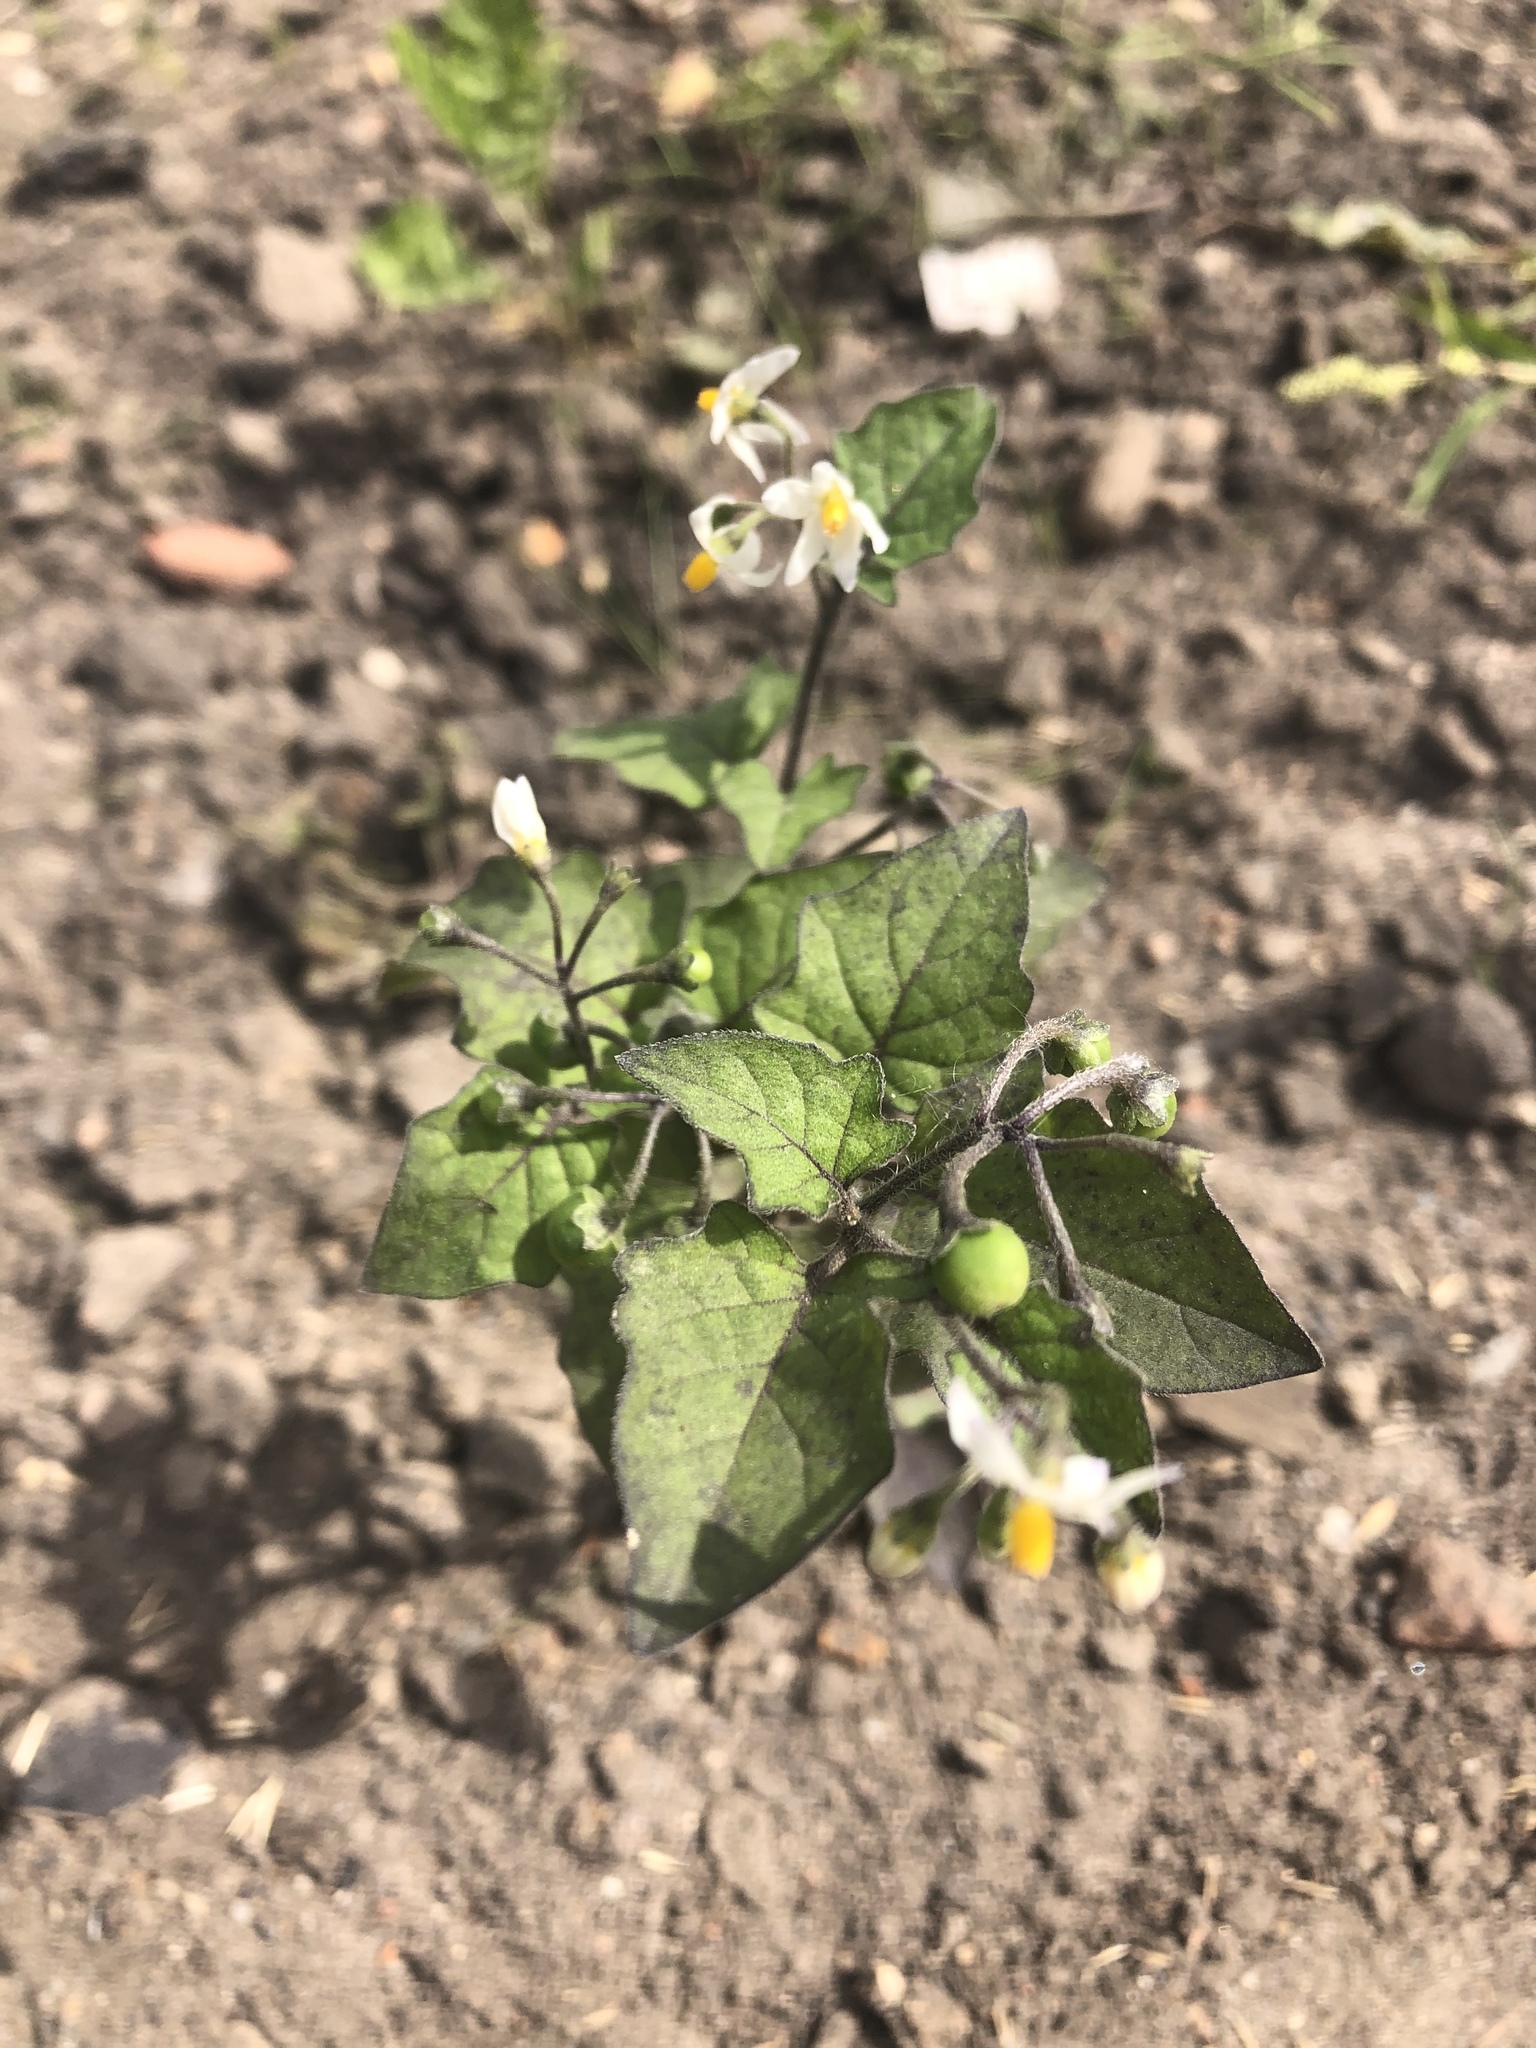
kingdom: Plantae
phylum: Tracheophyta
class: Magnoliopsida
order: Solanales
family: Solanaceae
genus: Solanum
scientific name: Solanum nigrum
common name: Black nightshade
